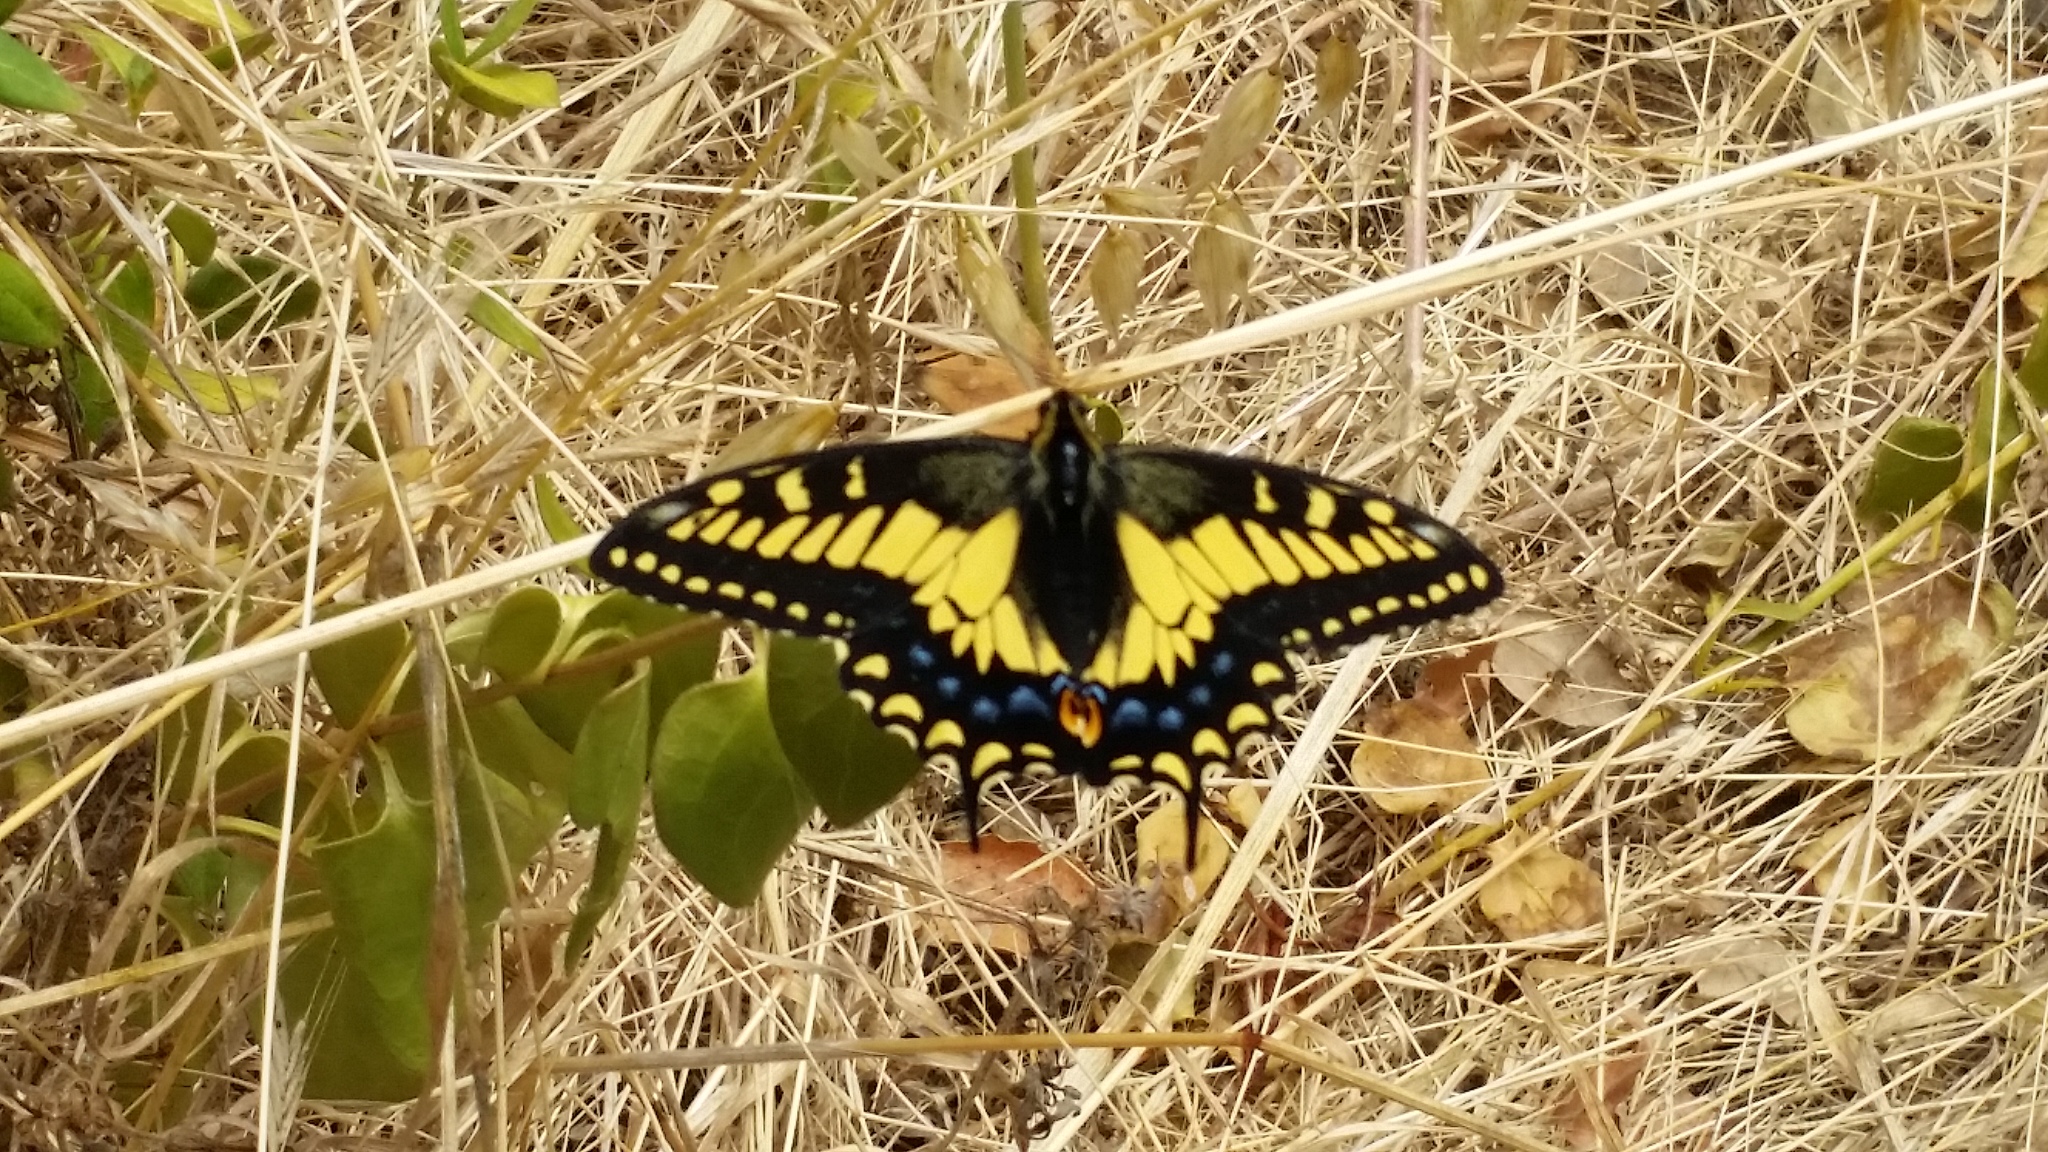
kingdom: Animalia
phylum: Arthropoda
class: Insecta
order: Lepidoptera
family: Papilionidae
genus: Papilio
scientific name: Papilio zelicaon
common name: Anise swallowtail
